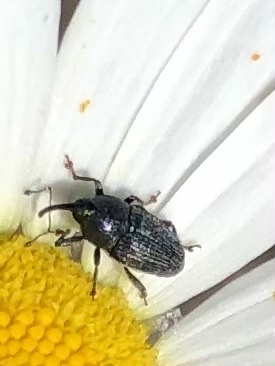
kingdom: Animalia
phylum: Arthropoda
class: Insecta
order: Coleoptera
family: Curculionidae
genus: Odontocorynus
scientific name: Odontocorynus salebrosus
